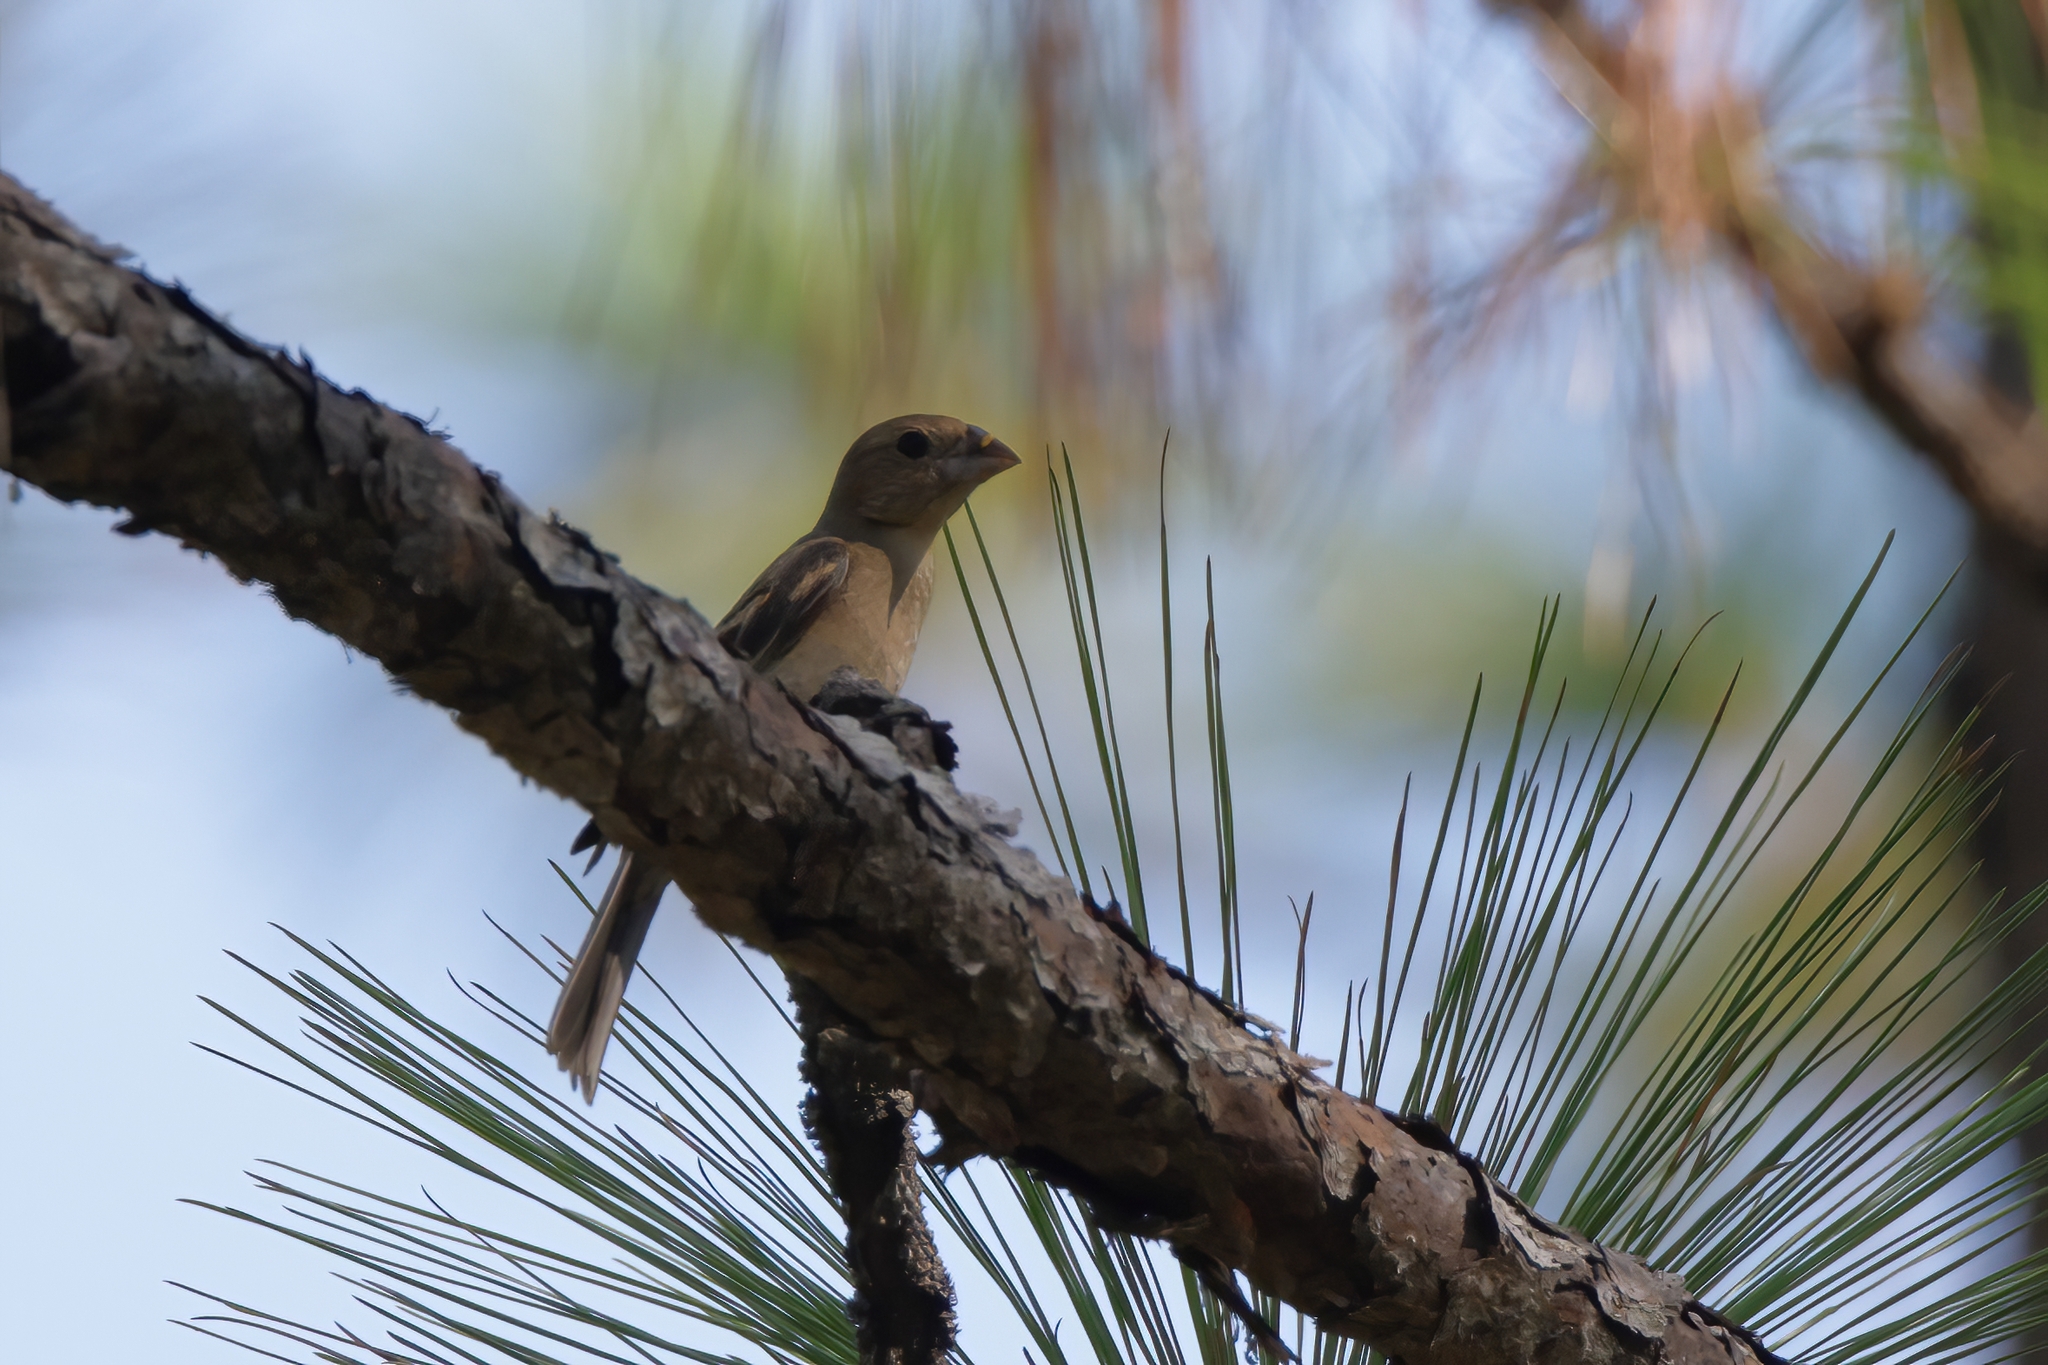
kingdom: Animalia
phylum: Chordata
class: Aves
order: Passeriformes
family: Cardinalidae
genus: Passerina
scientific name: Passerina caerulea
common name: Blue grosbeak
